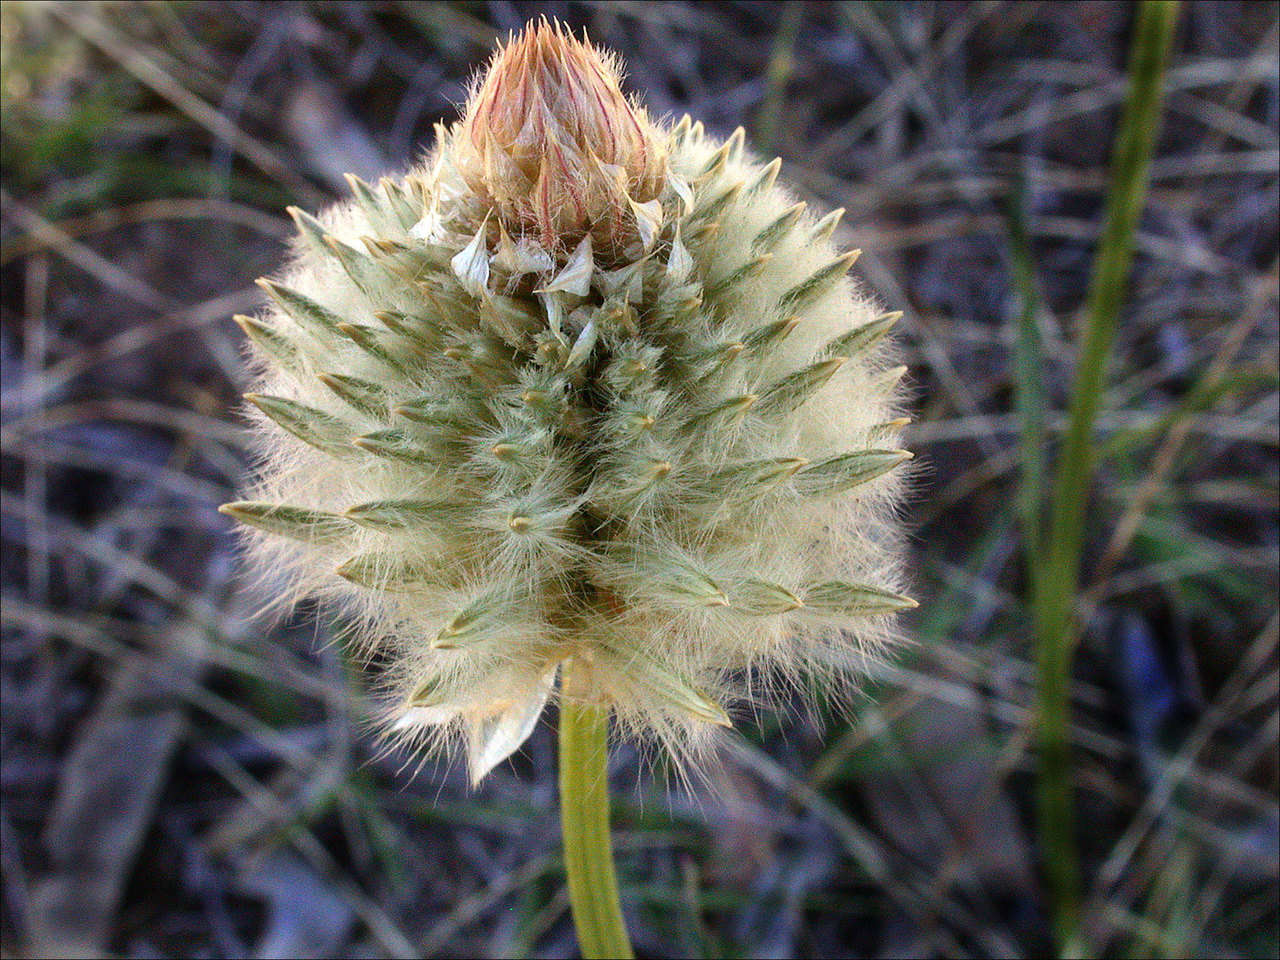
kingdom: Plantae
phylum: Tracheophyta
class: Magnoliopsida
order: Caryophyllales
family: Amaranthaceae
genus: Ptilotus
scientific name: Ptilotus macrocephalus
